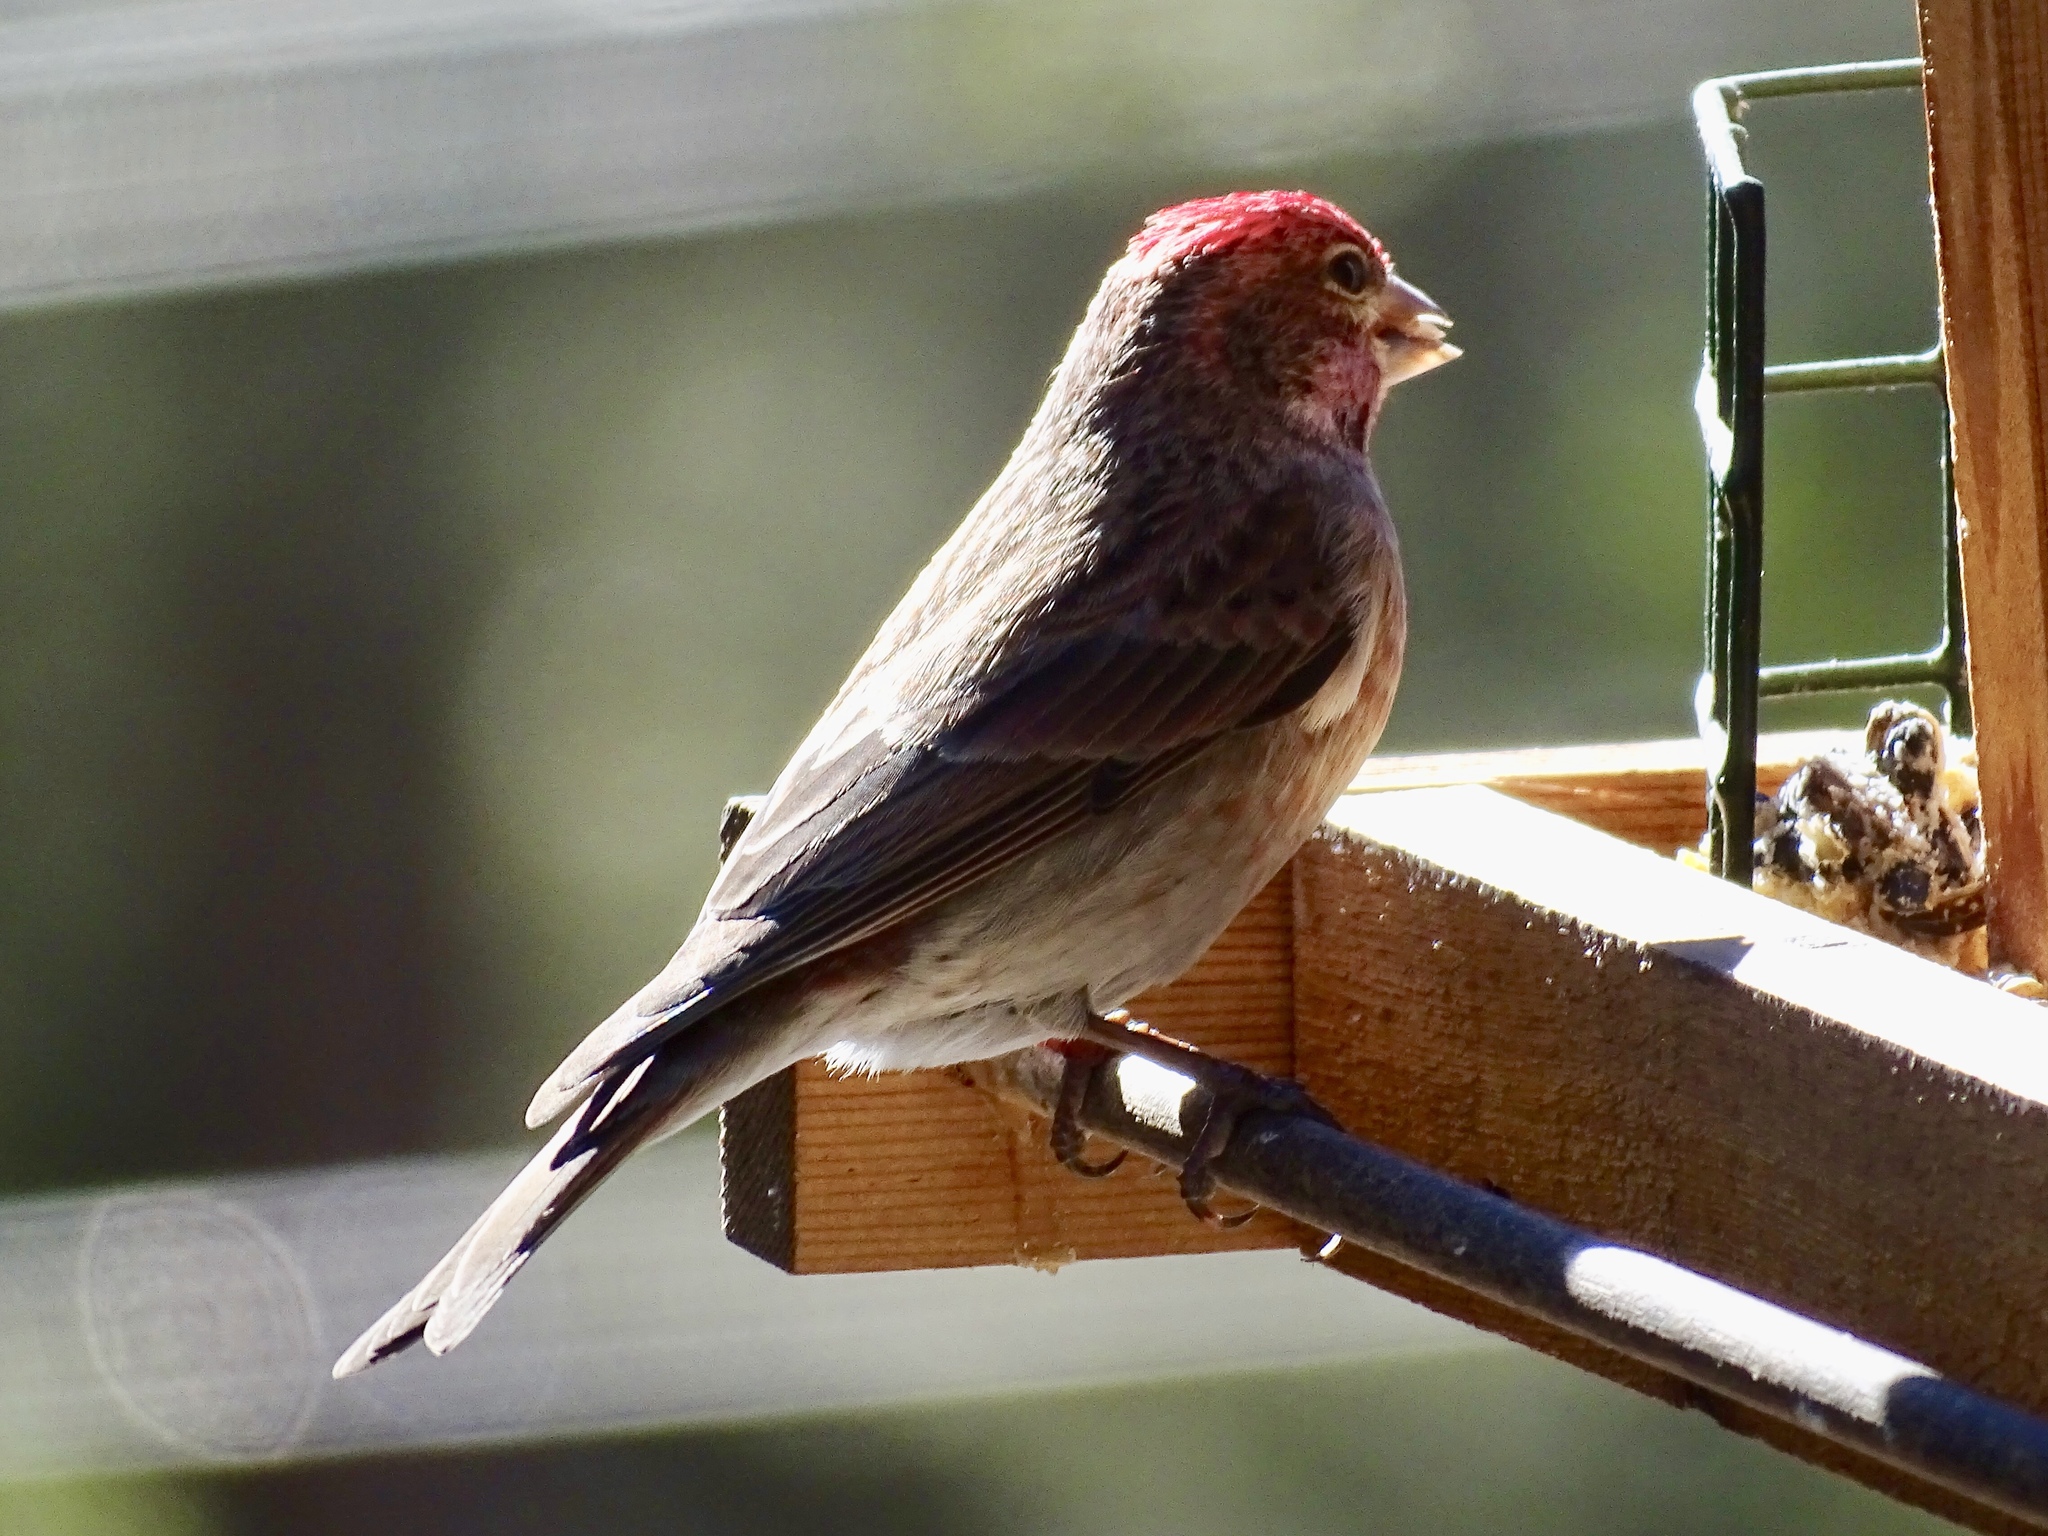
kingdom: Animalia
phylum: Chordata
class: Aves
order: Passeriformes
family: Fringillidae
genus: Haemorhous
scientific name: Haemorhous cassinii
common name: Cassin's finch
